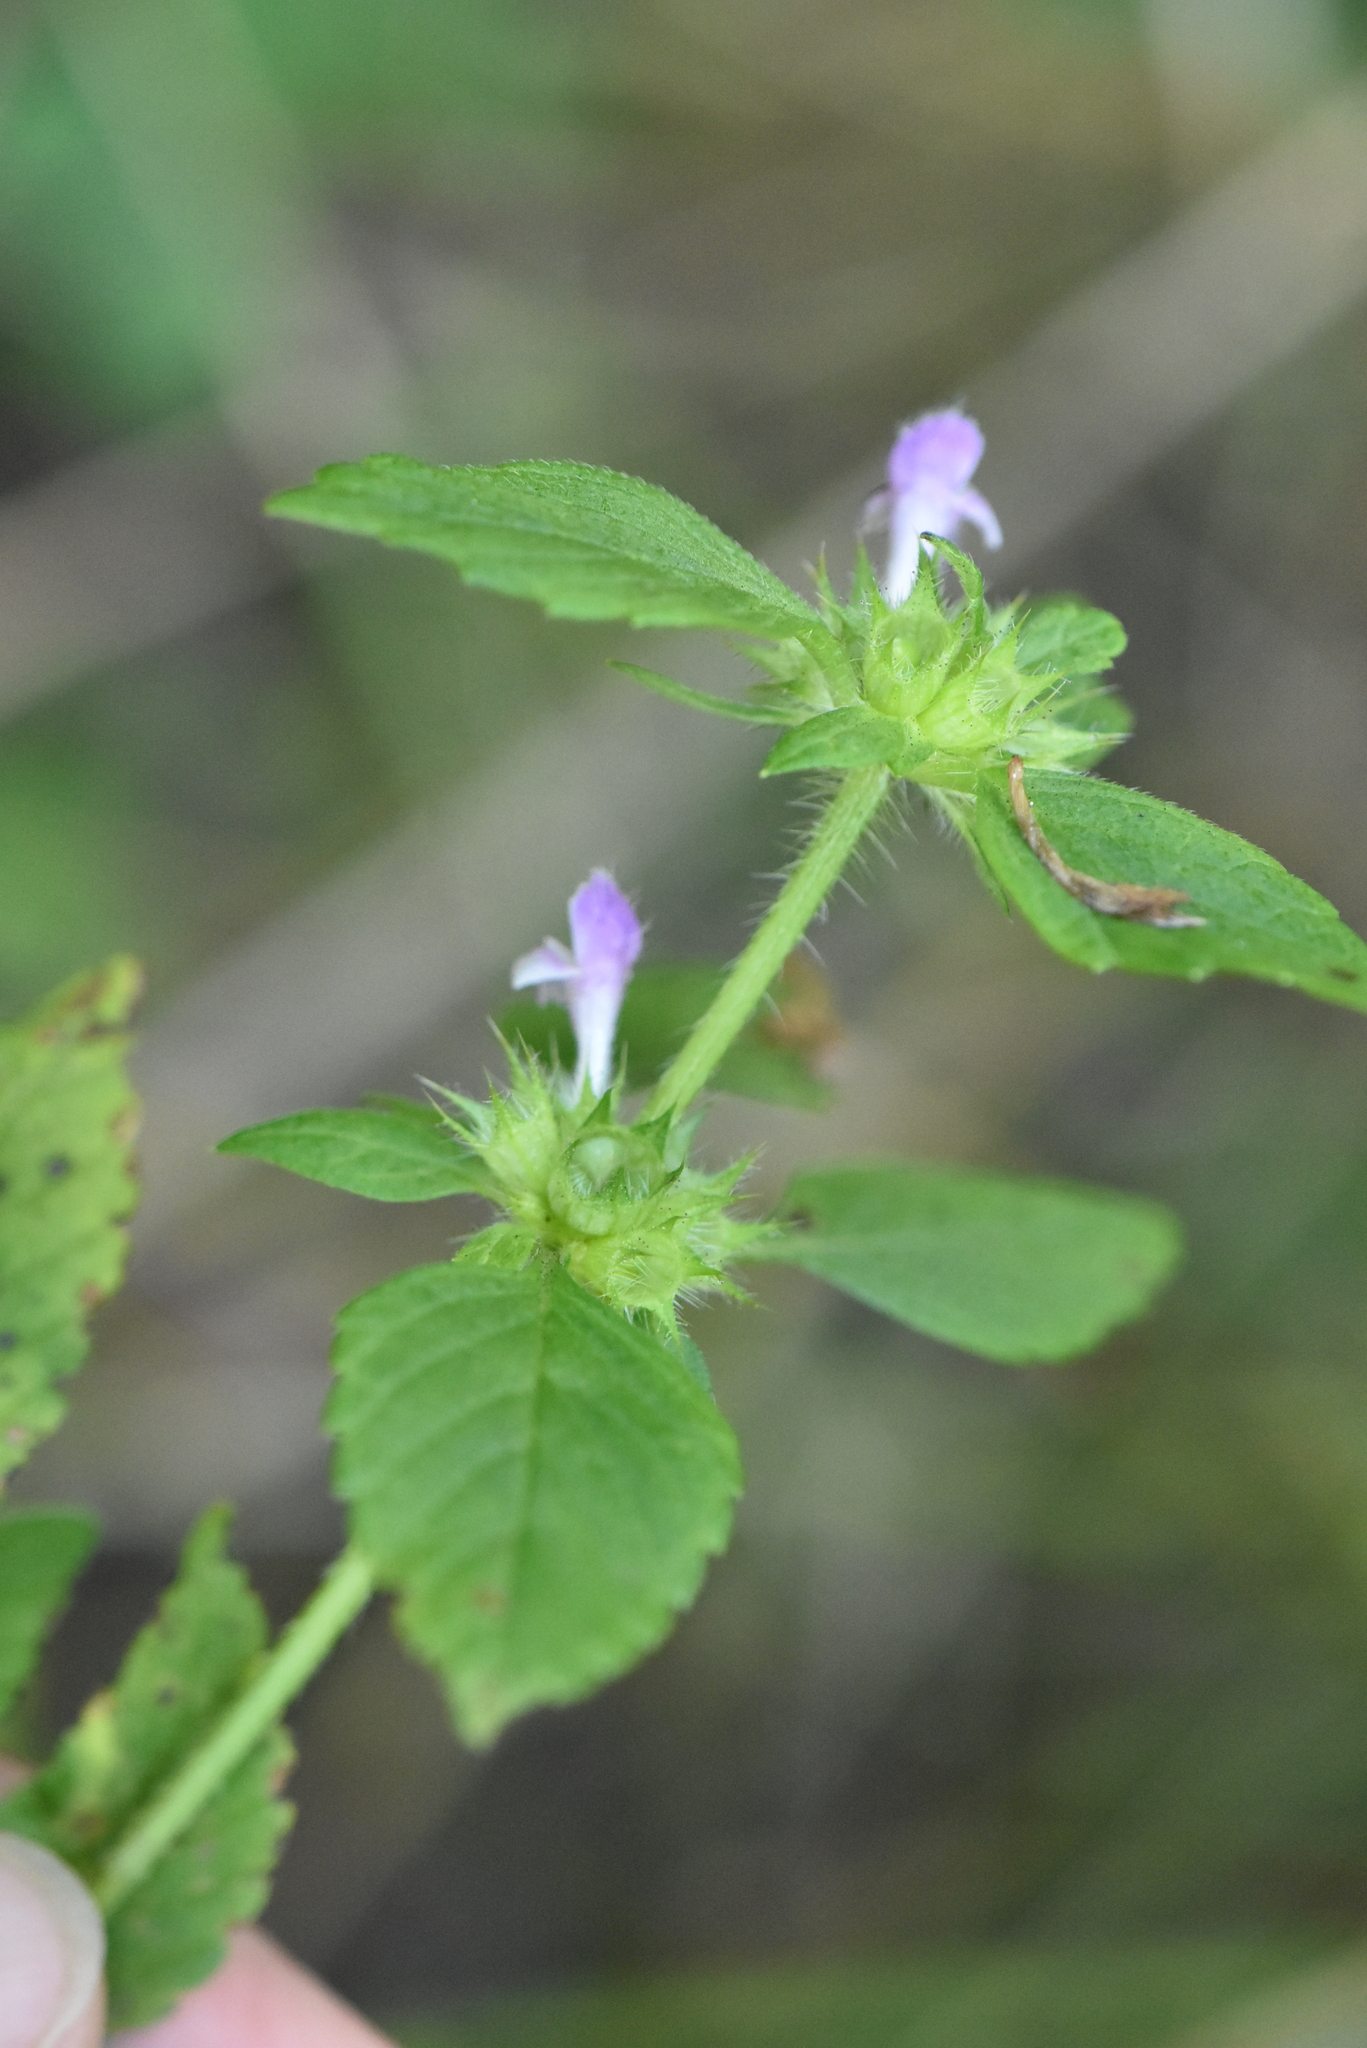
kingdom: Plantae
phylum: Tracheophyta
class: Magnoliopsida
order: Lamiales
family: Lamiaceae
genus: Galeopsis
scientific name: Galeopsis bifida
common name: Bifid hemp-nettle
